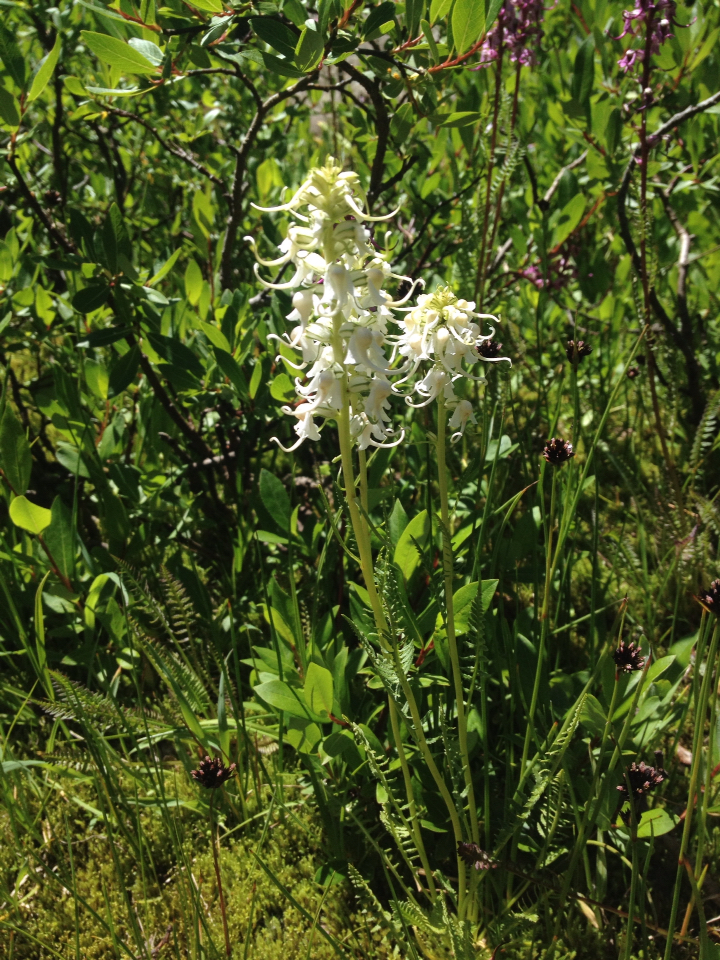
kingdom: Plantae
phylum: Tracheophyta
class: Magnoliopsida
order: Lamiales
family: Orobanchaceae
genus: Pedicularis
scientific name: Pedicularis groenlandica
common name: Elephant's-head
